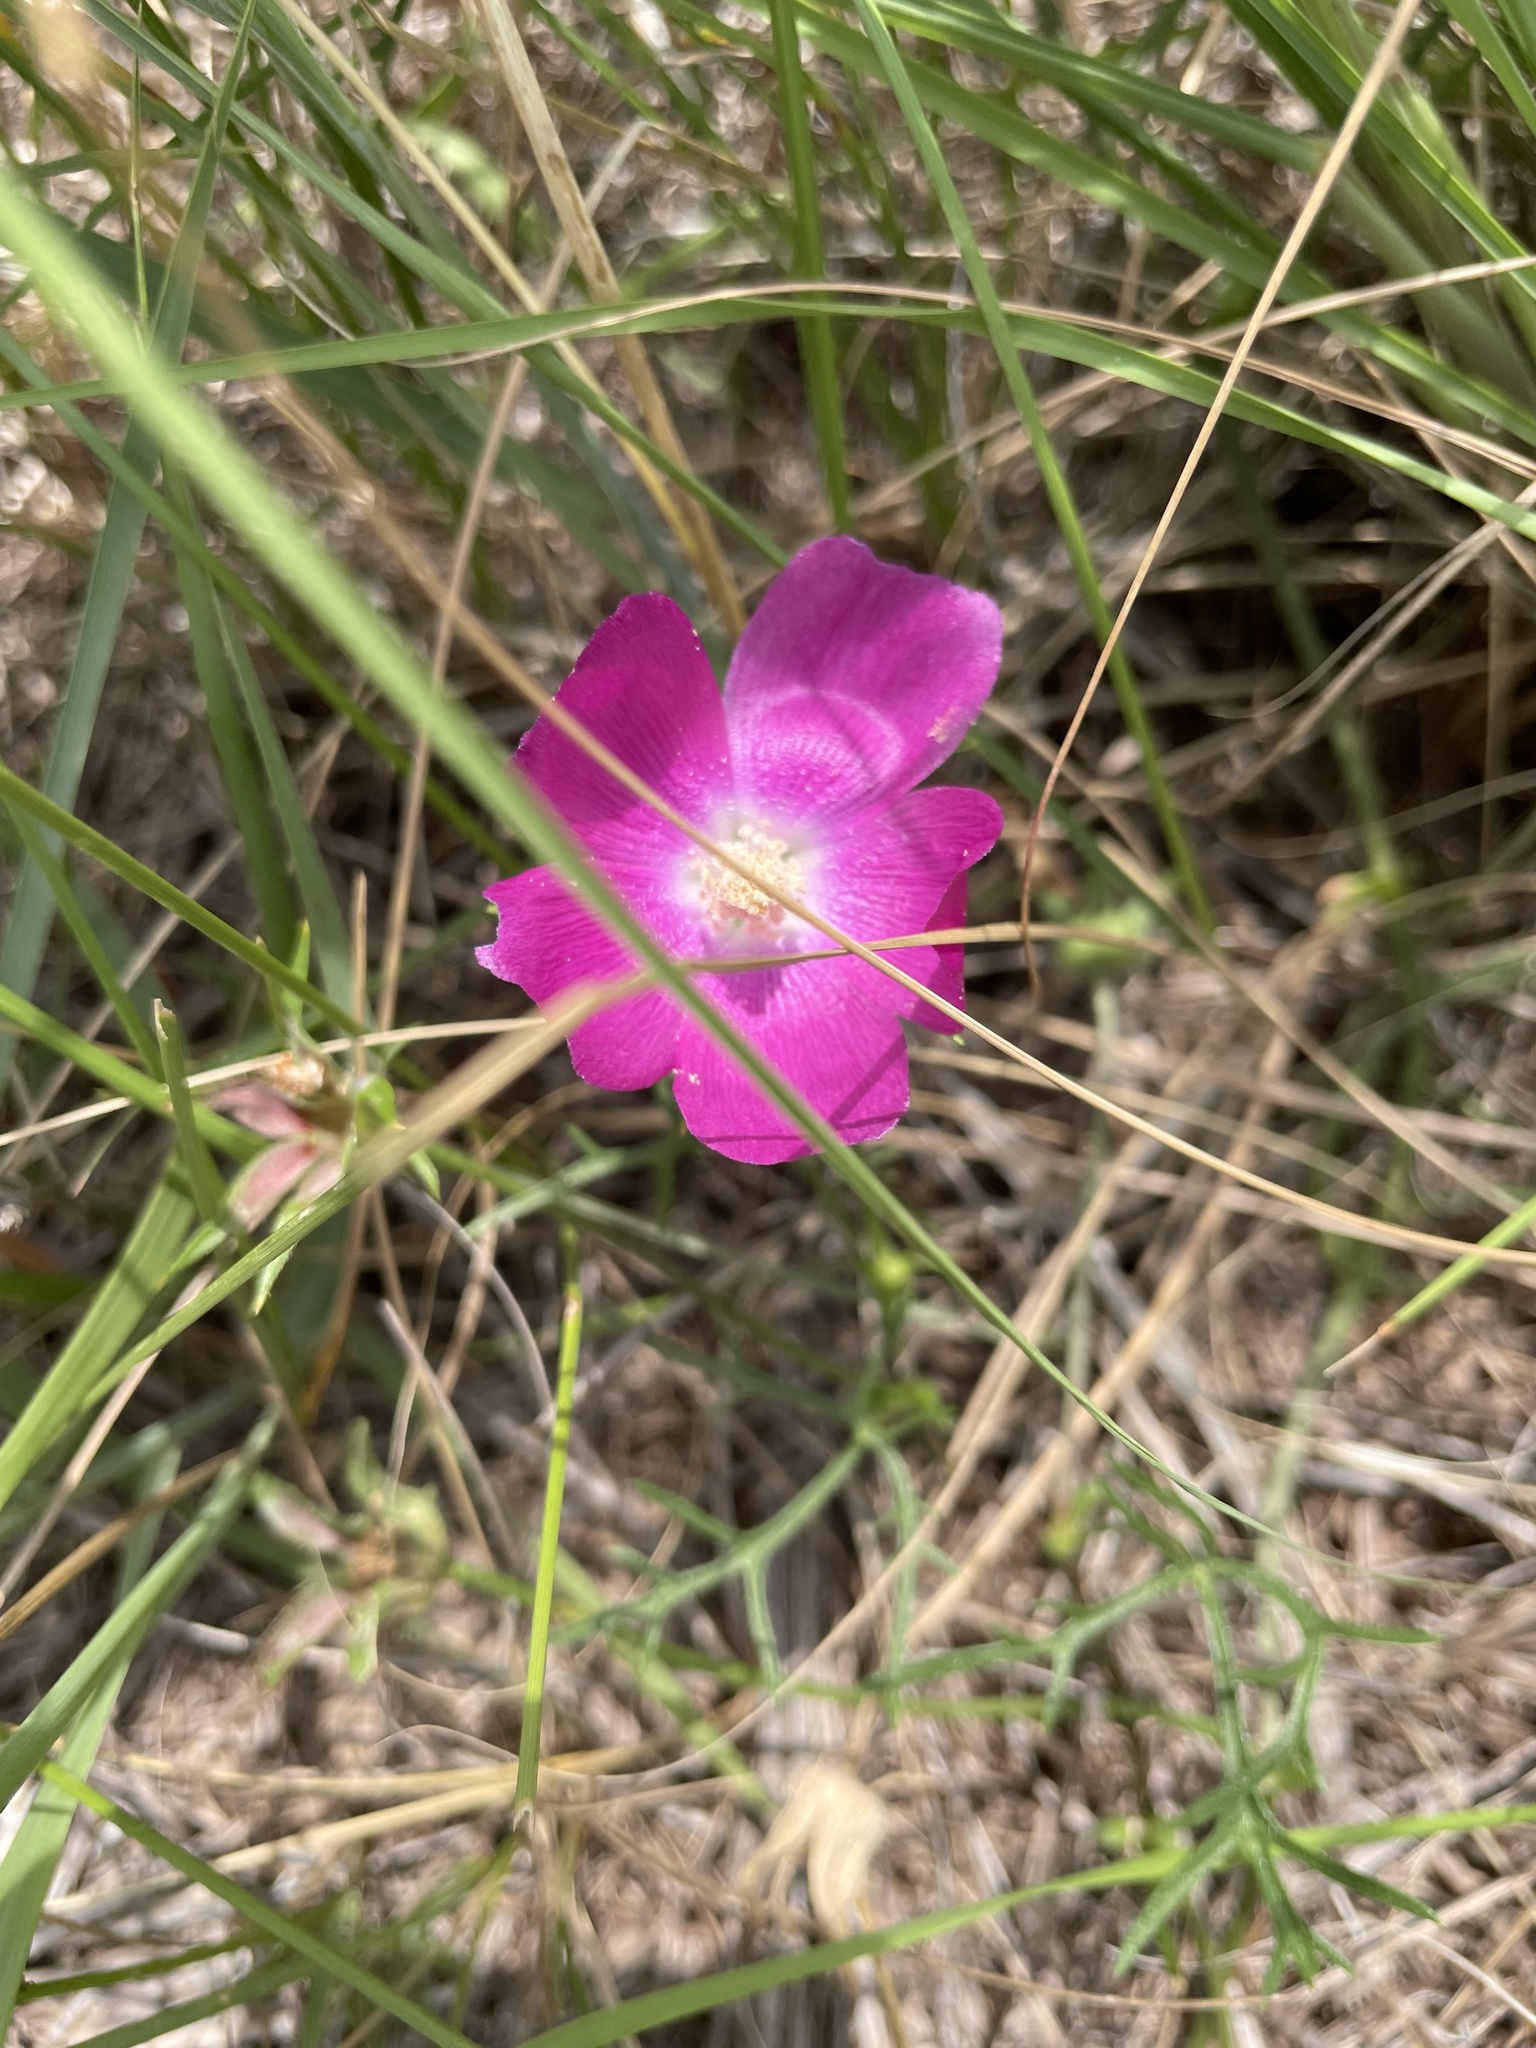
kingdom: Plantae
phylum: Tracheophyta
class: Magnoliopsida
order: Malvales
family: Malvaceae
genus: Callirhoe
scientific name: Callirhoe involucrata
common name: Purple poppy-mallow
